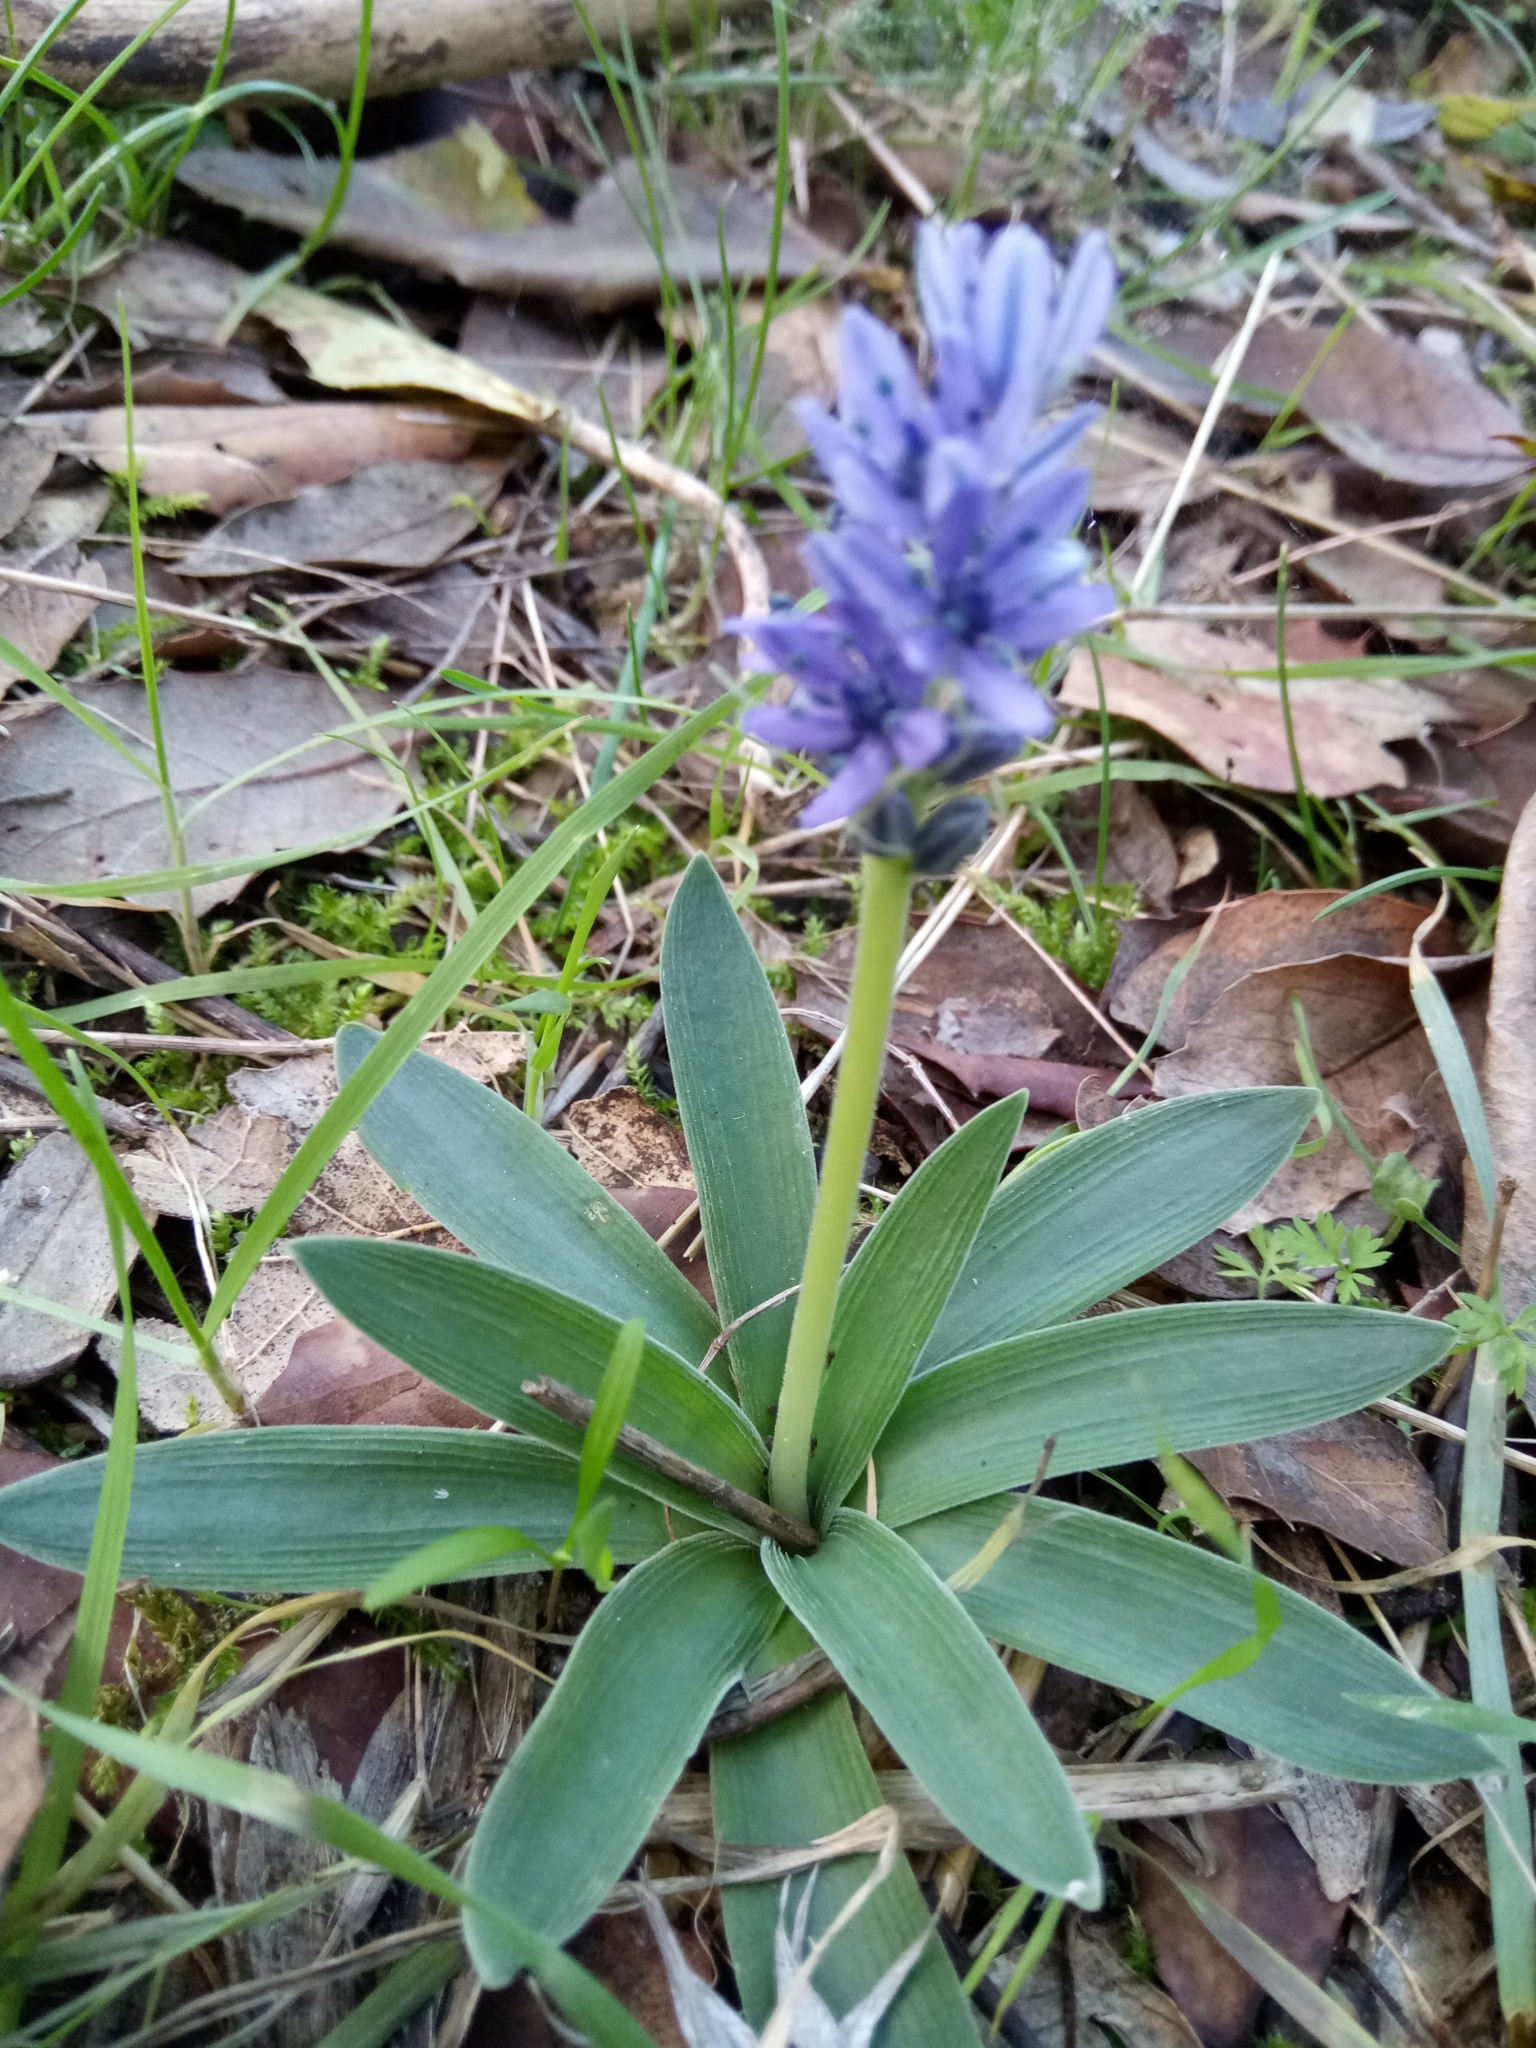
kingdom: Plantae
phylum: Tracheophyta
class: Liliopsida
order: Asparagales
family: Asparagaceae
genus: Hyacinthoides
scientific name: Hyacinthoides lingulata
